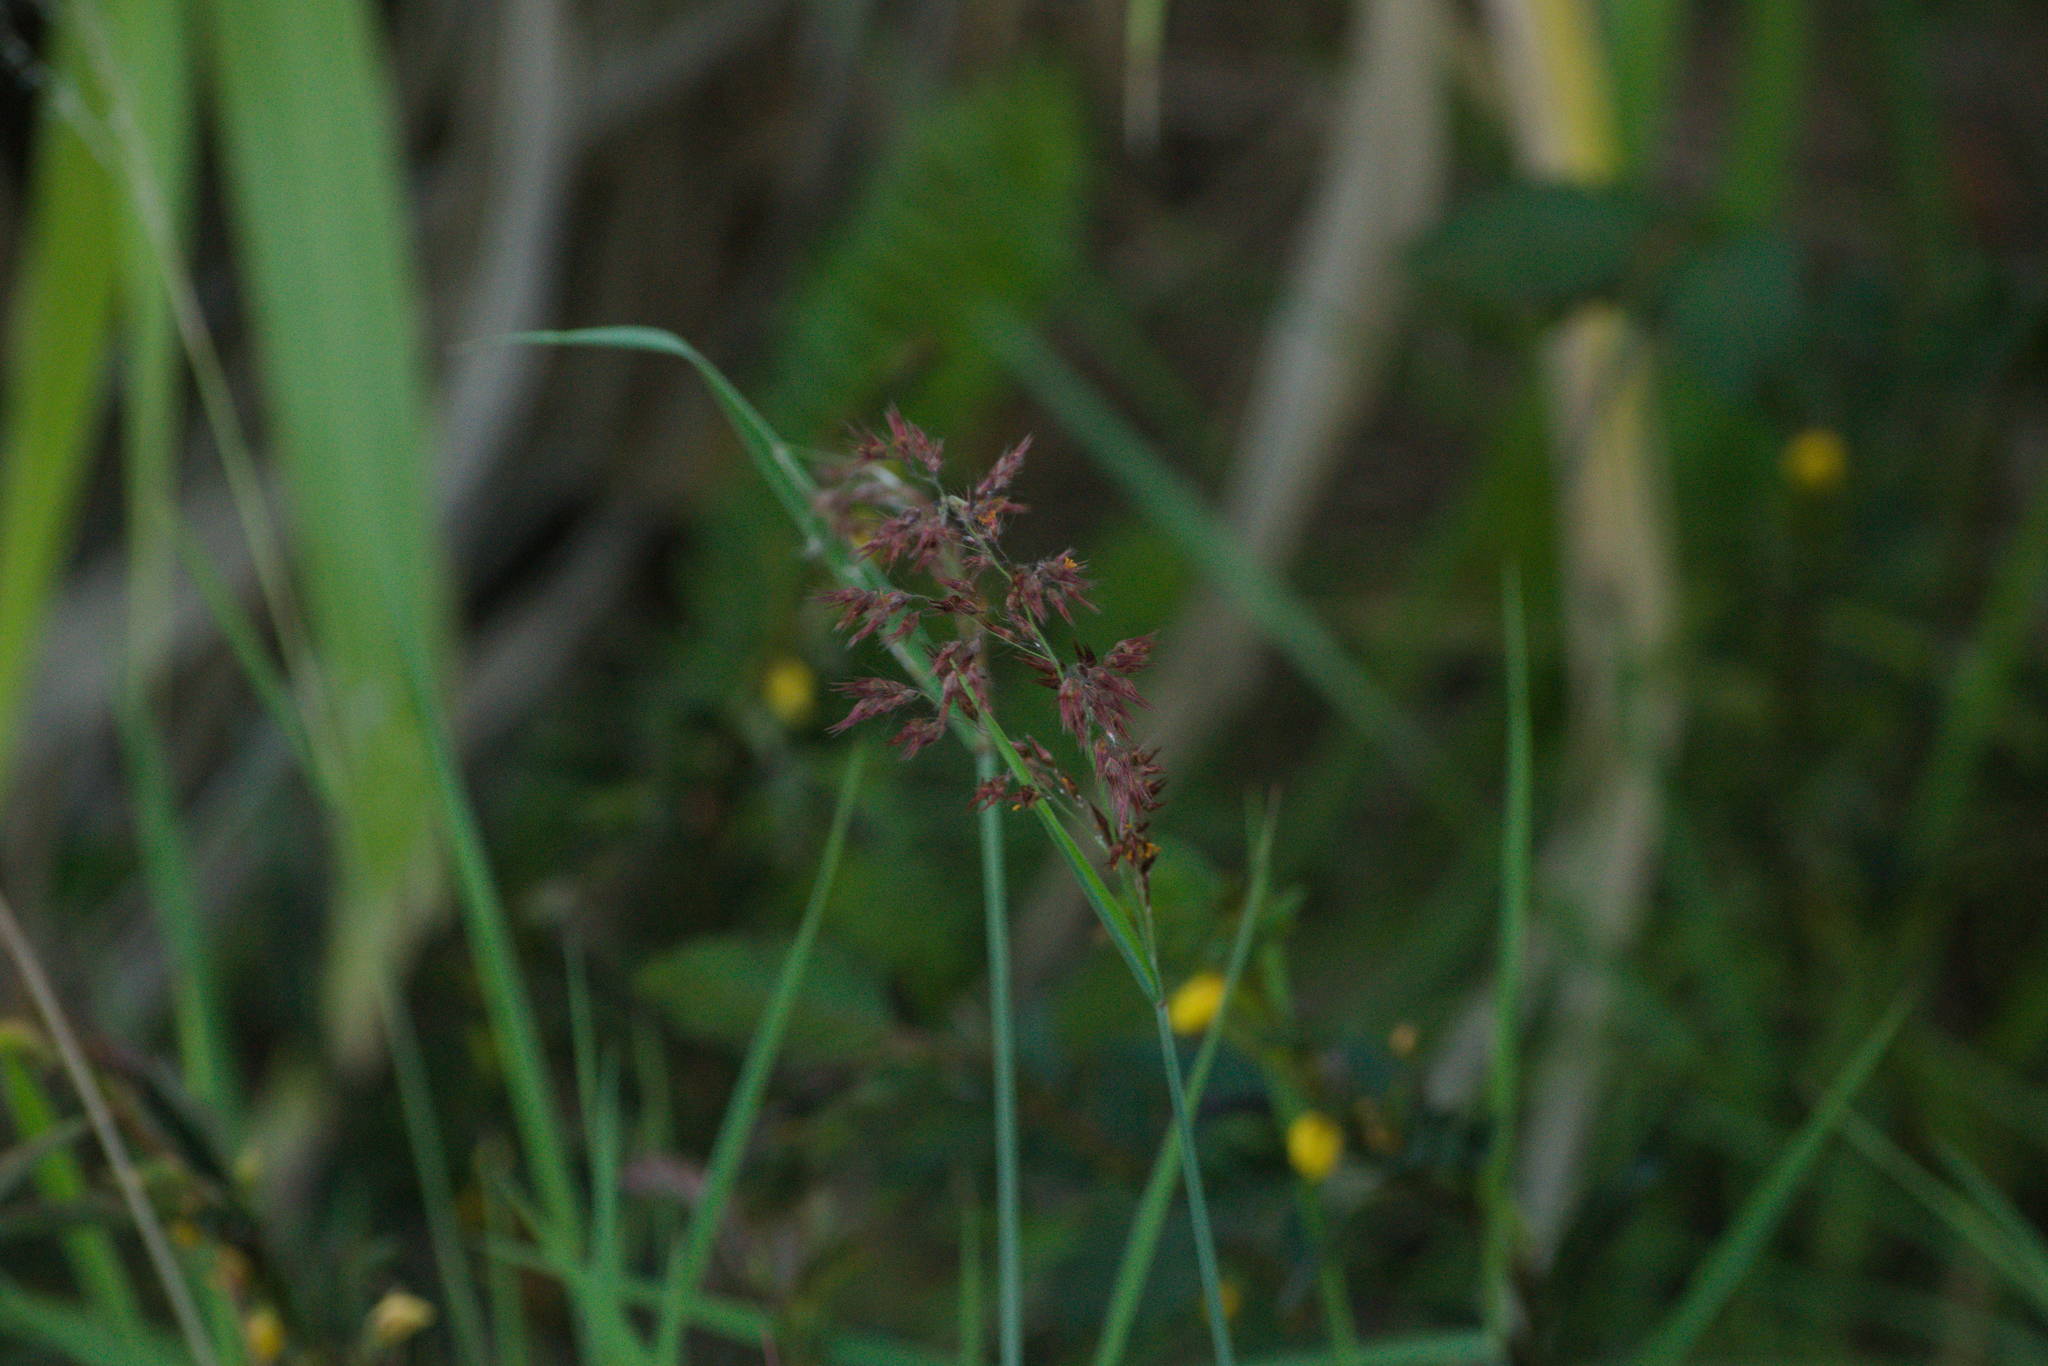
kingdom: Plantae
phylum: Tracheophyta
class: Liliopsida
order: Poales
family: Poaceae
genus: Melinis
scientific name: Melinis repens
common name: Rose natal grass
